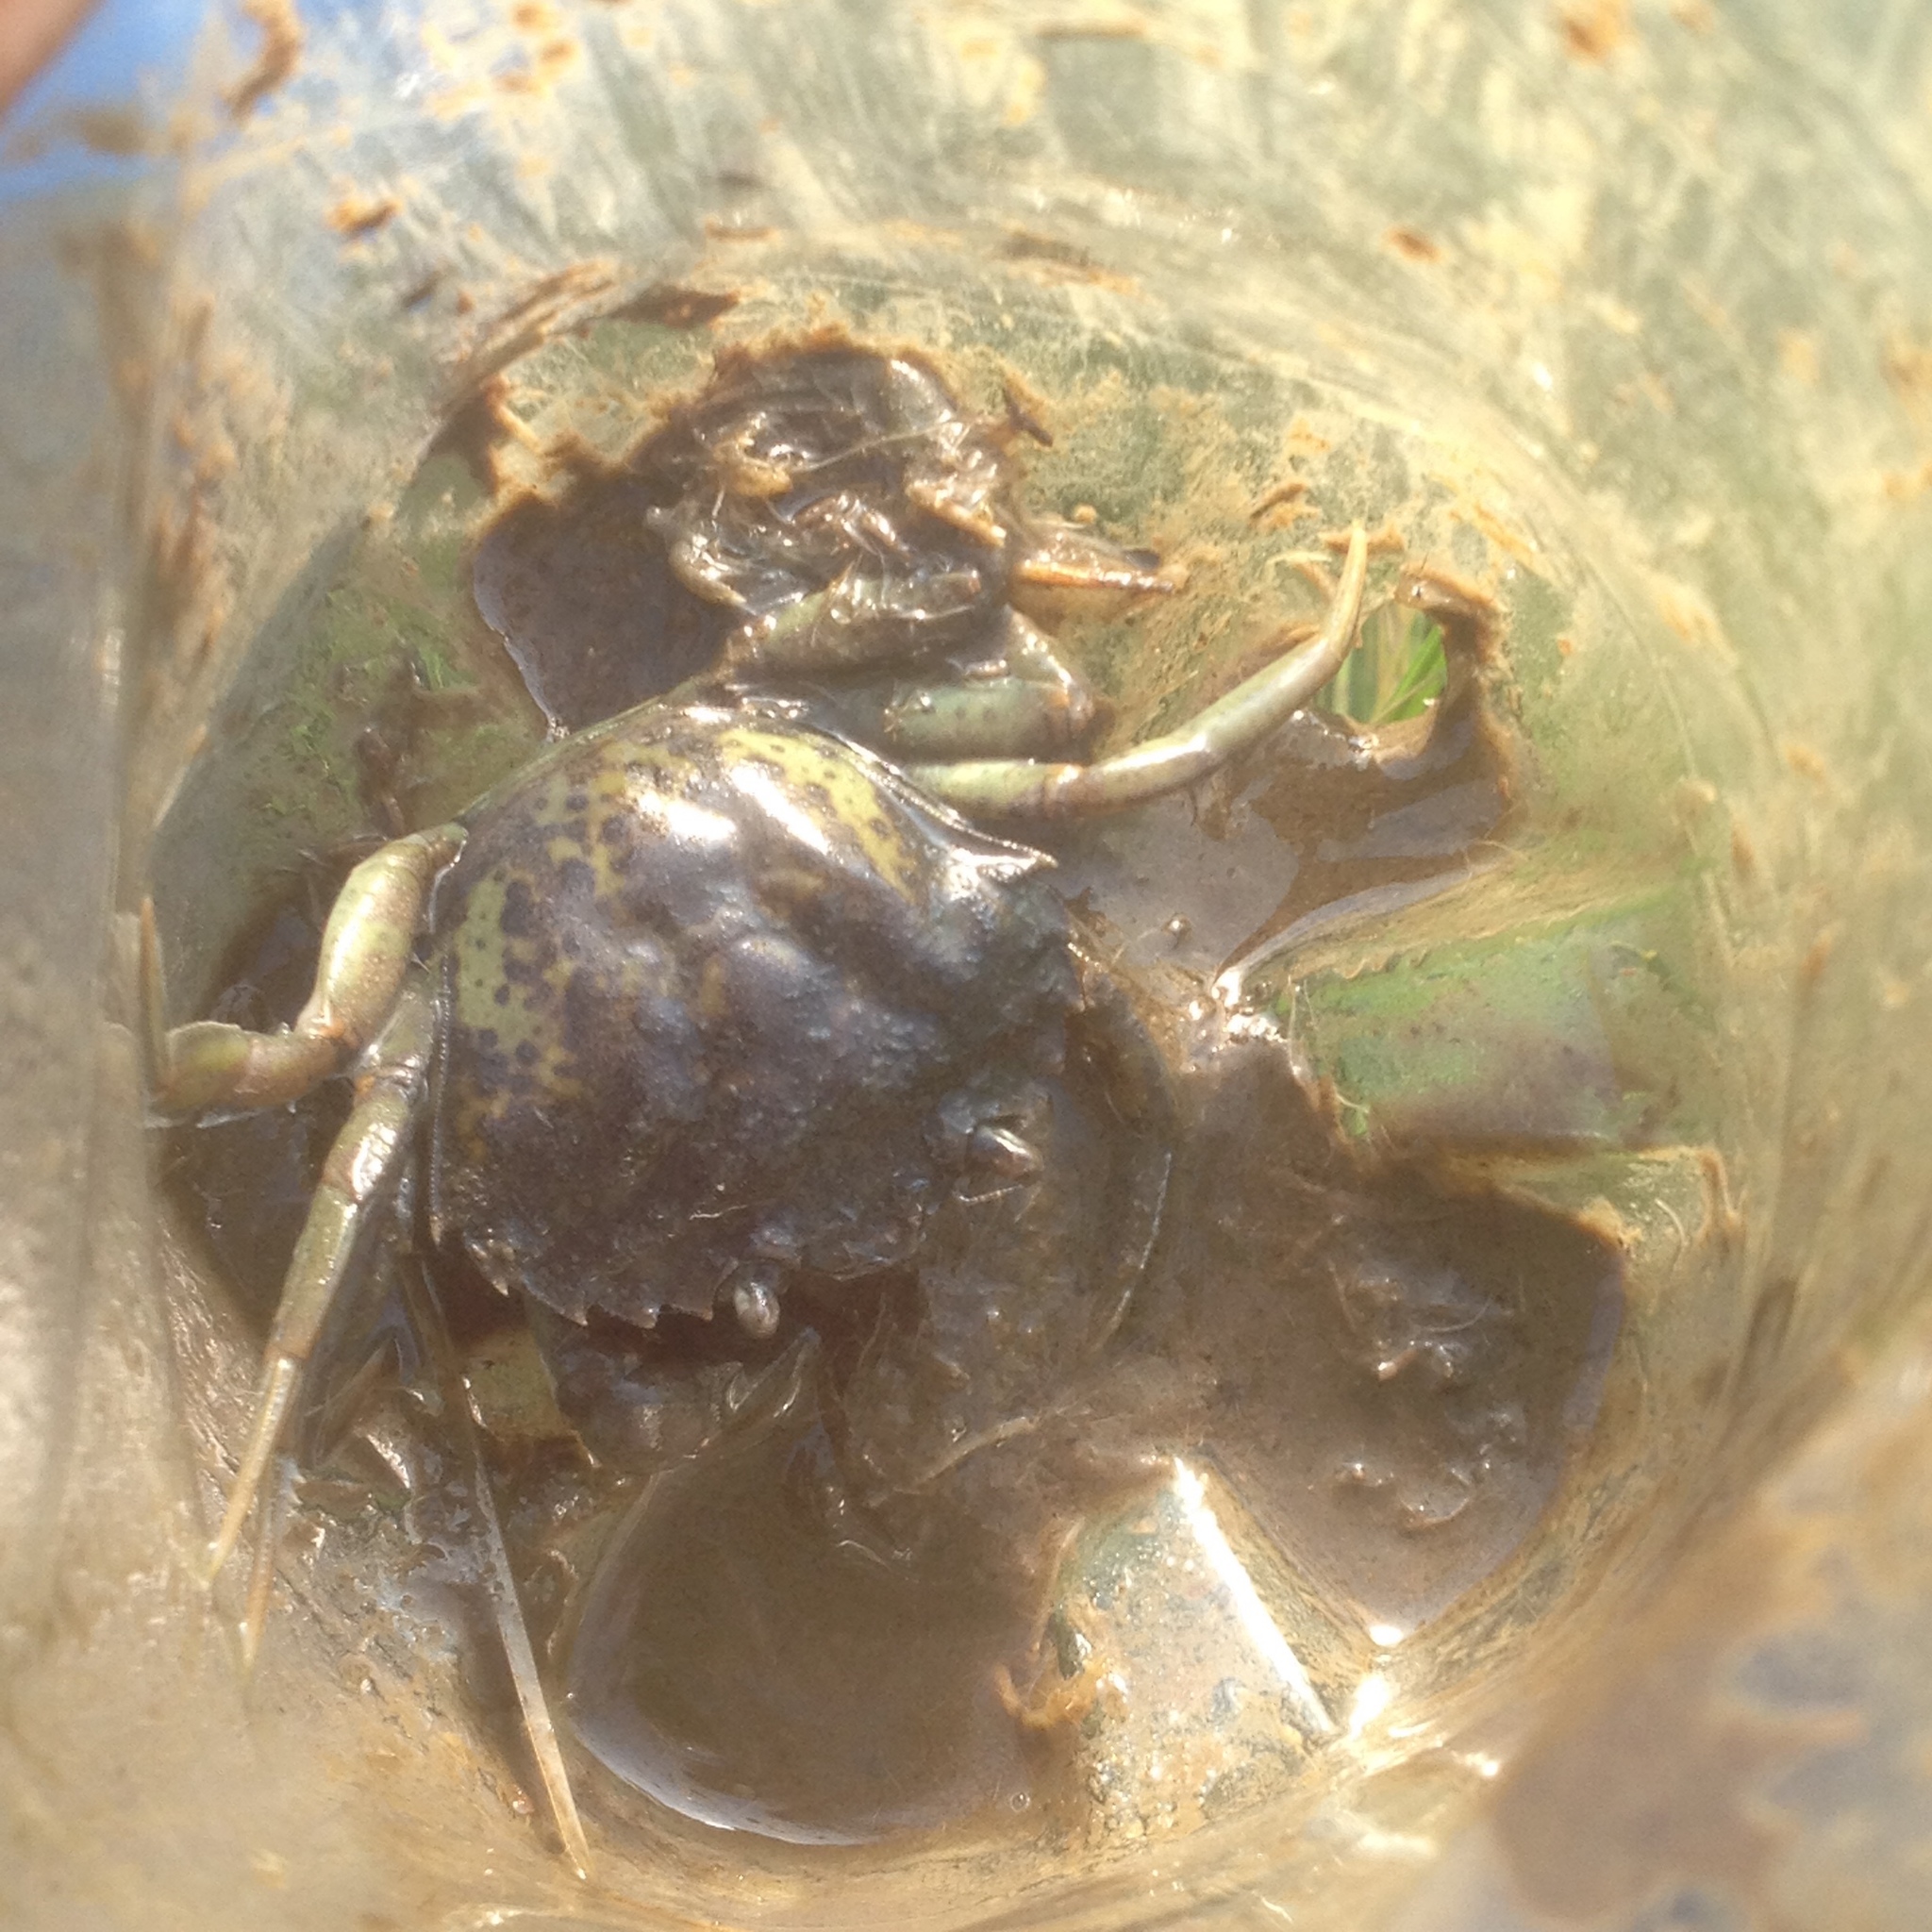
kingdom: Animalia
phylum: Arthropoda
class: Malacostraca
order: Decapoda
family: Carcinidae
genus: Carcinus
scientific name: Carcinus maenas
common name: European green crab
